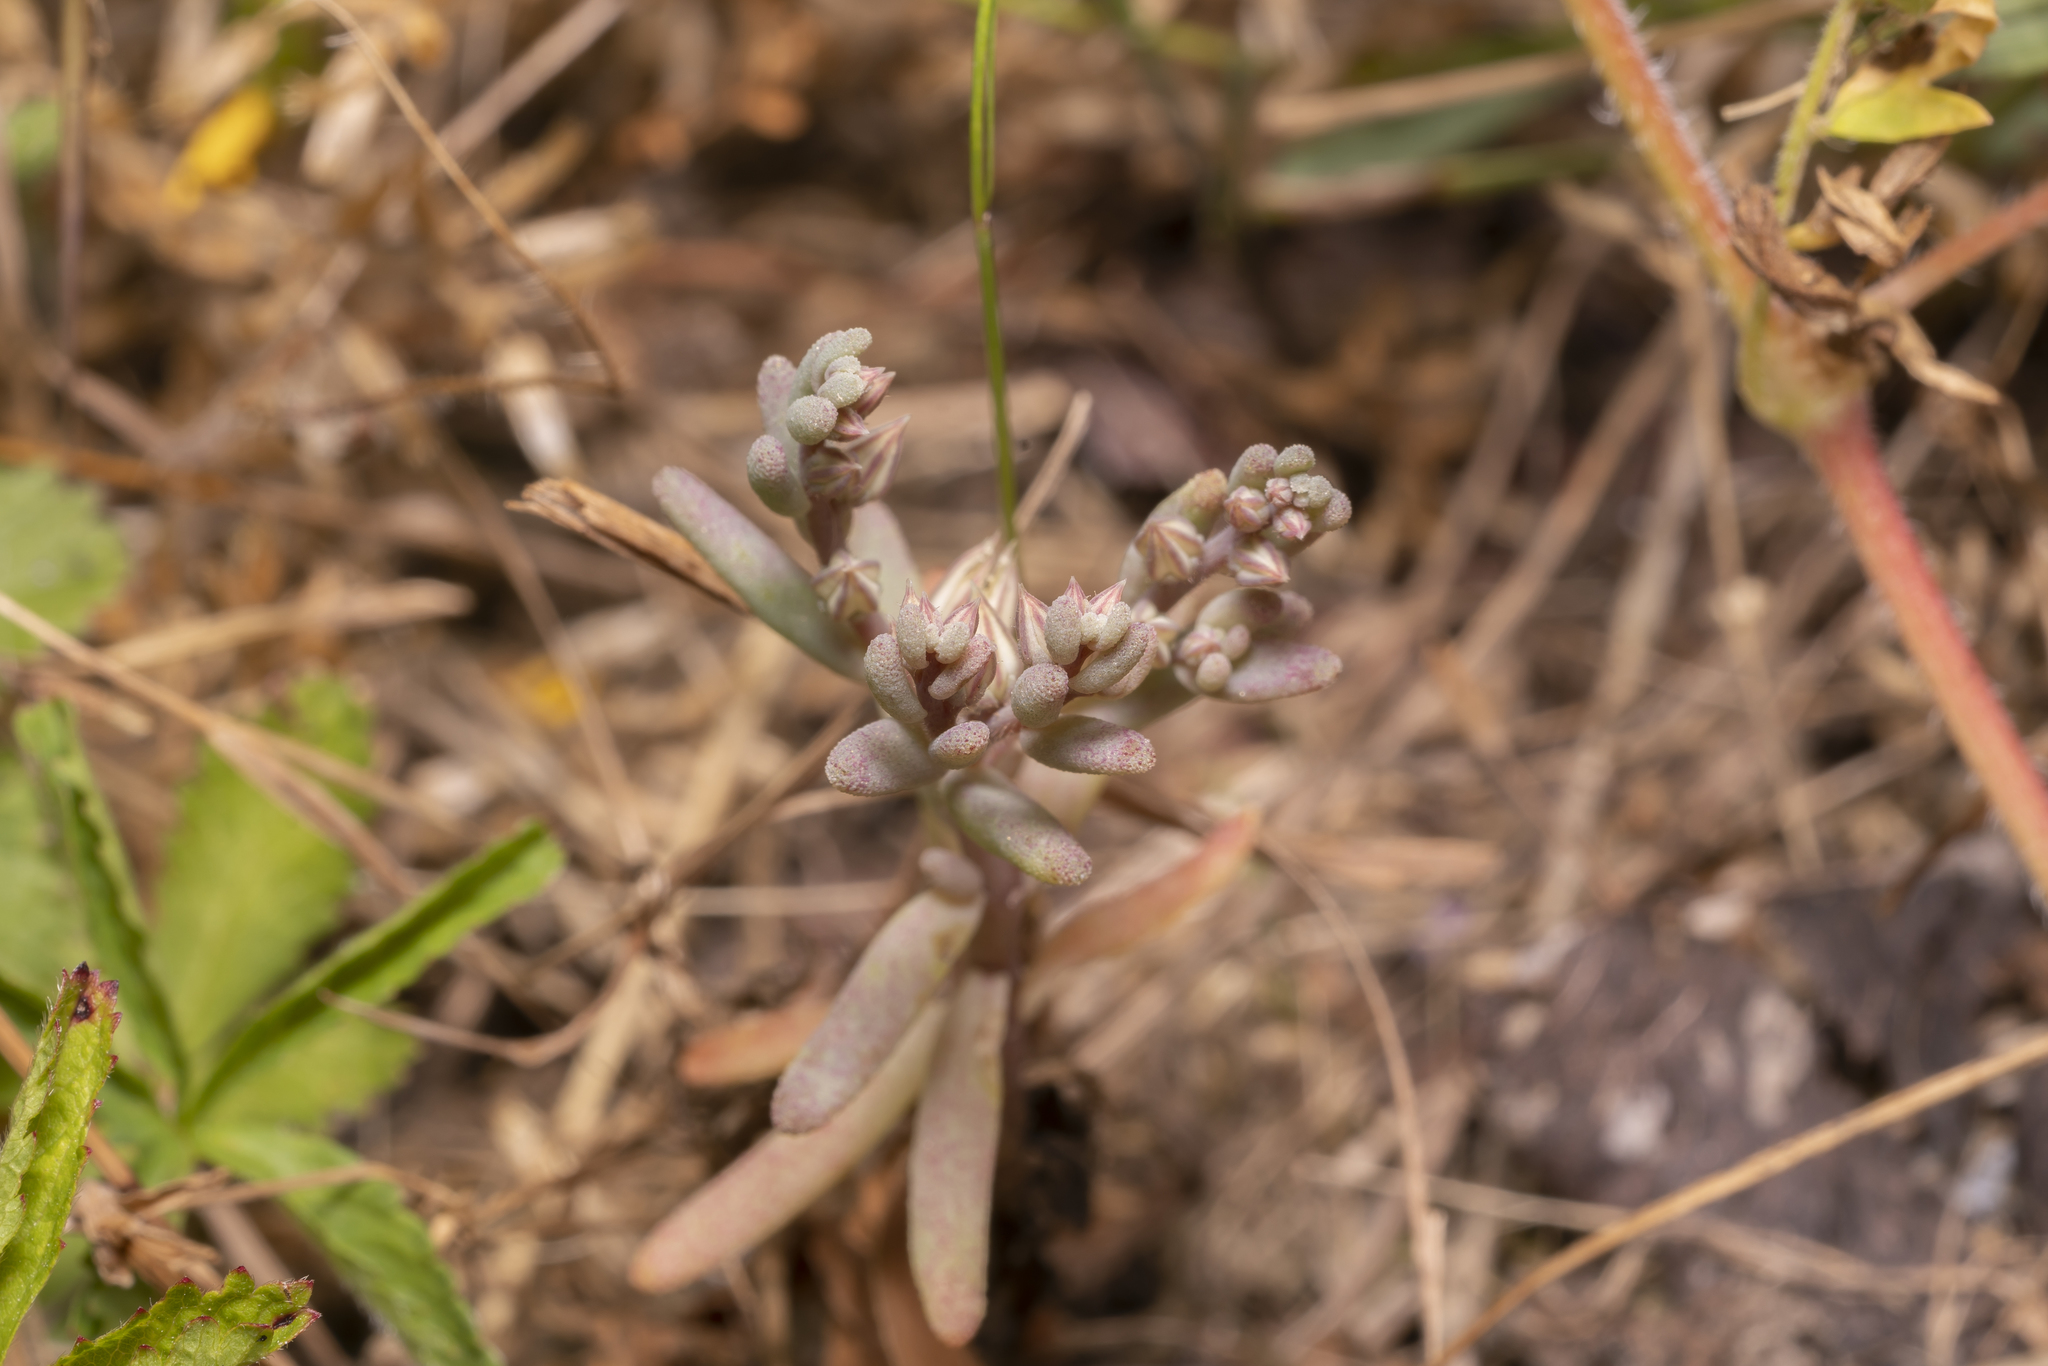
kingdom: Plantae
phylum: Tracheophyta
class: Magnoliopsida
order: Saxifragales
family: Crassulaceae
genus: Sedum
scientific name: Sedum rubens
